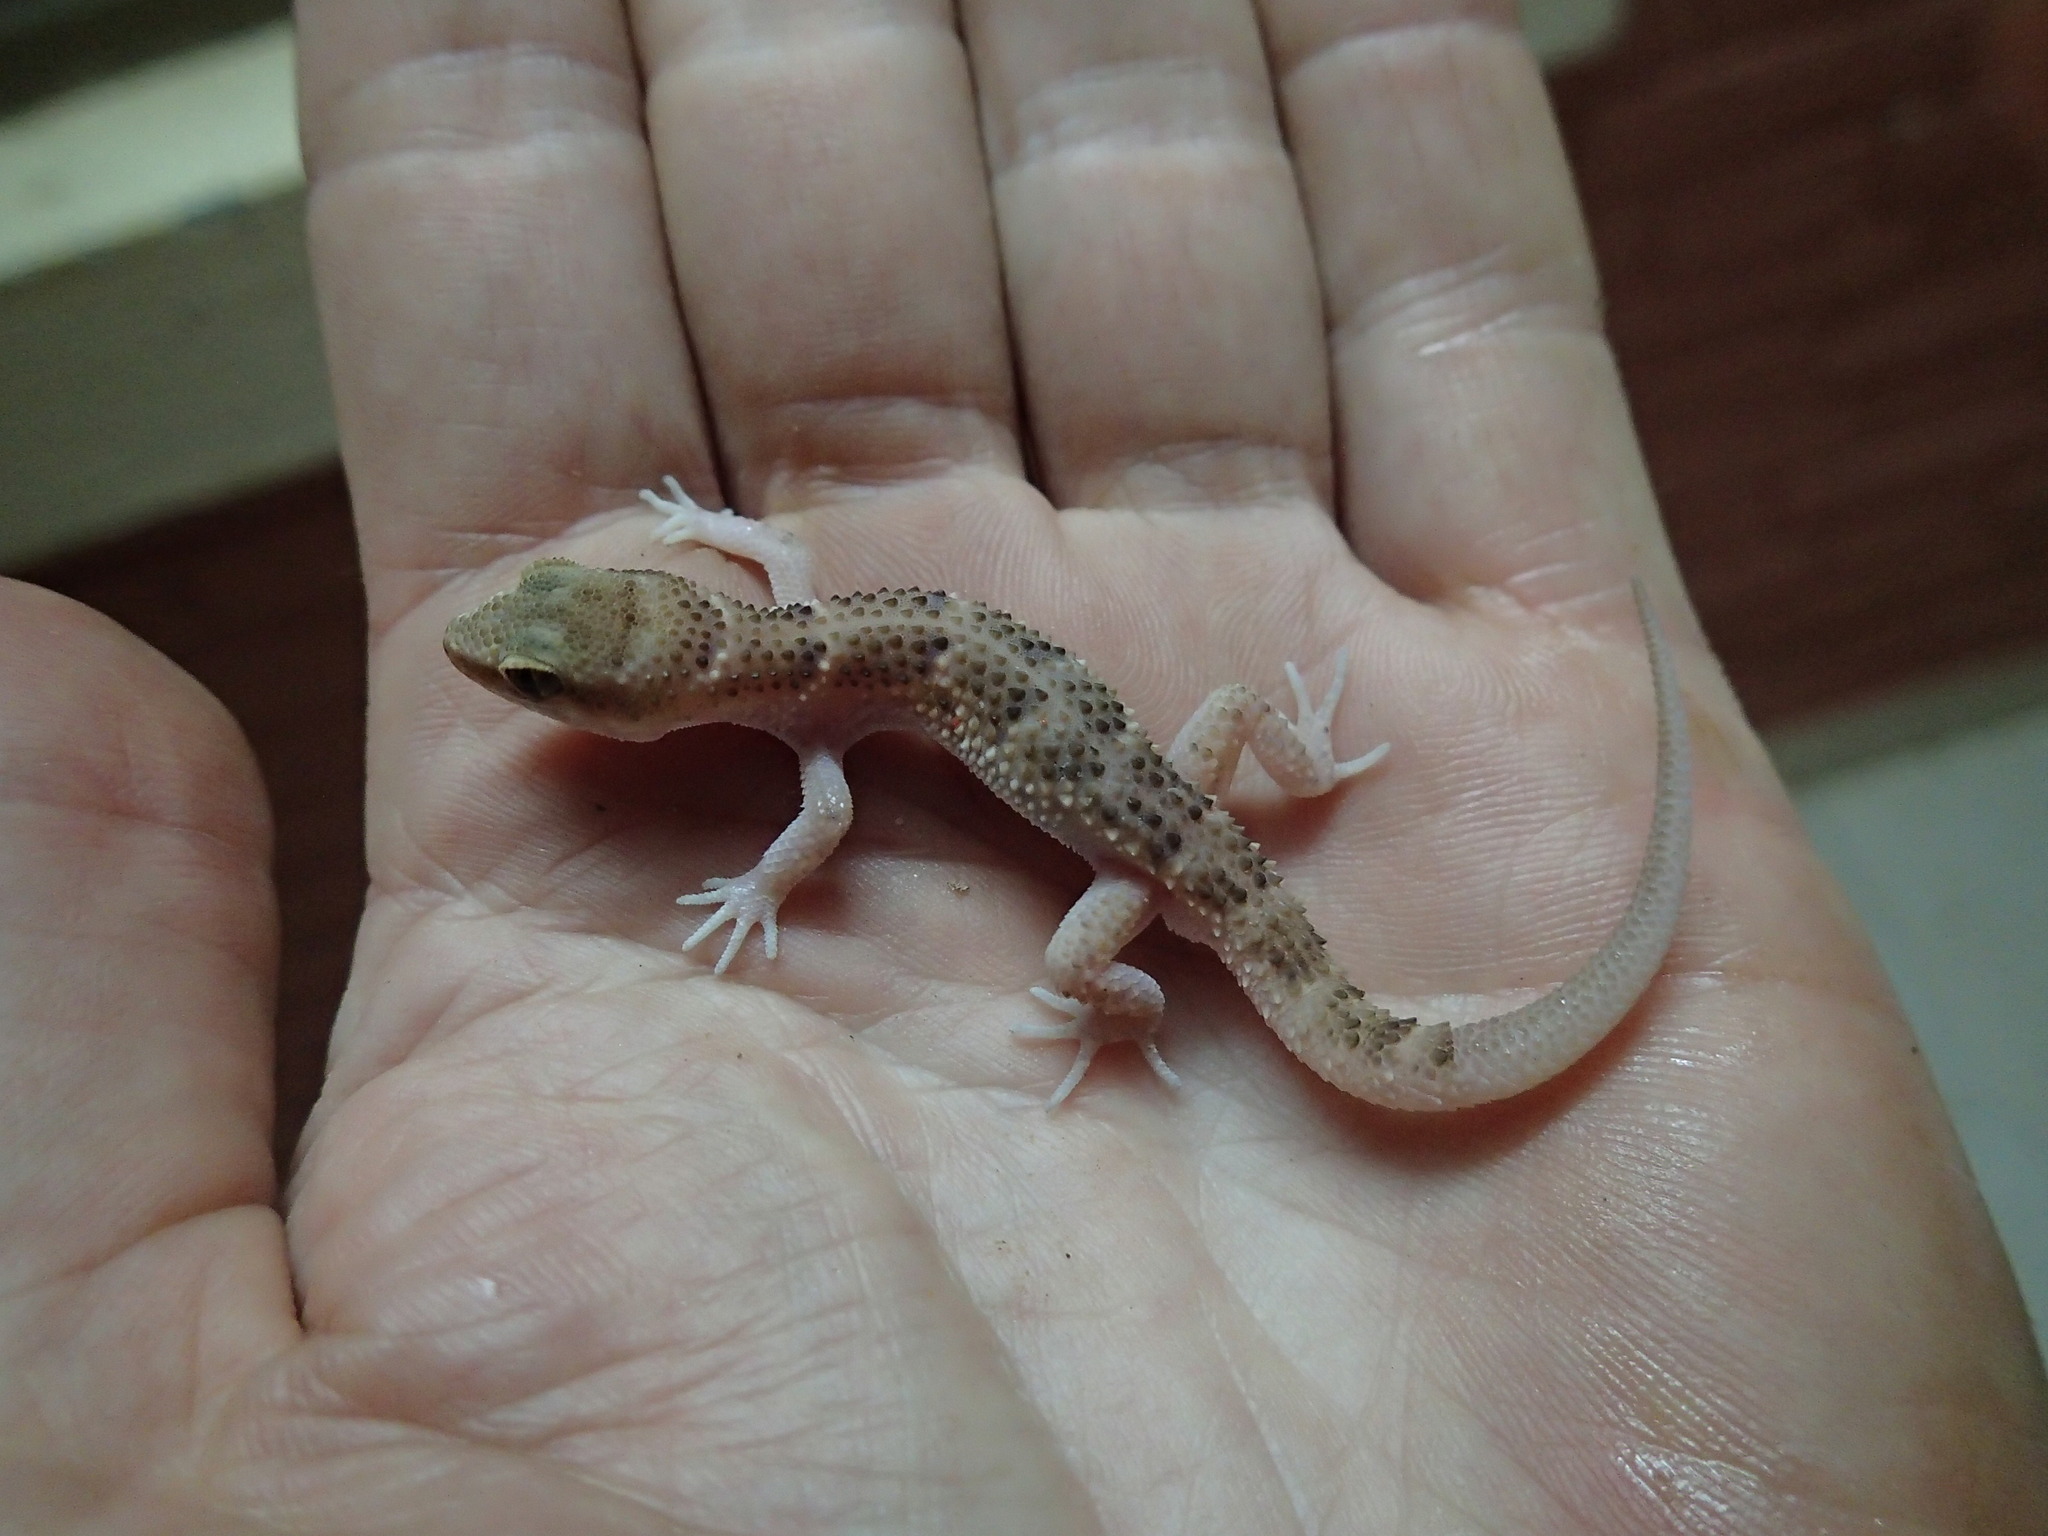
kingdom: Animalia
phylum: Chordata
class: Squamata
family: Phyllodactylidae
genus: Homonota
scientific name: Homonota septentrionalis
